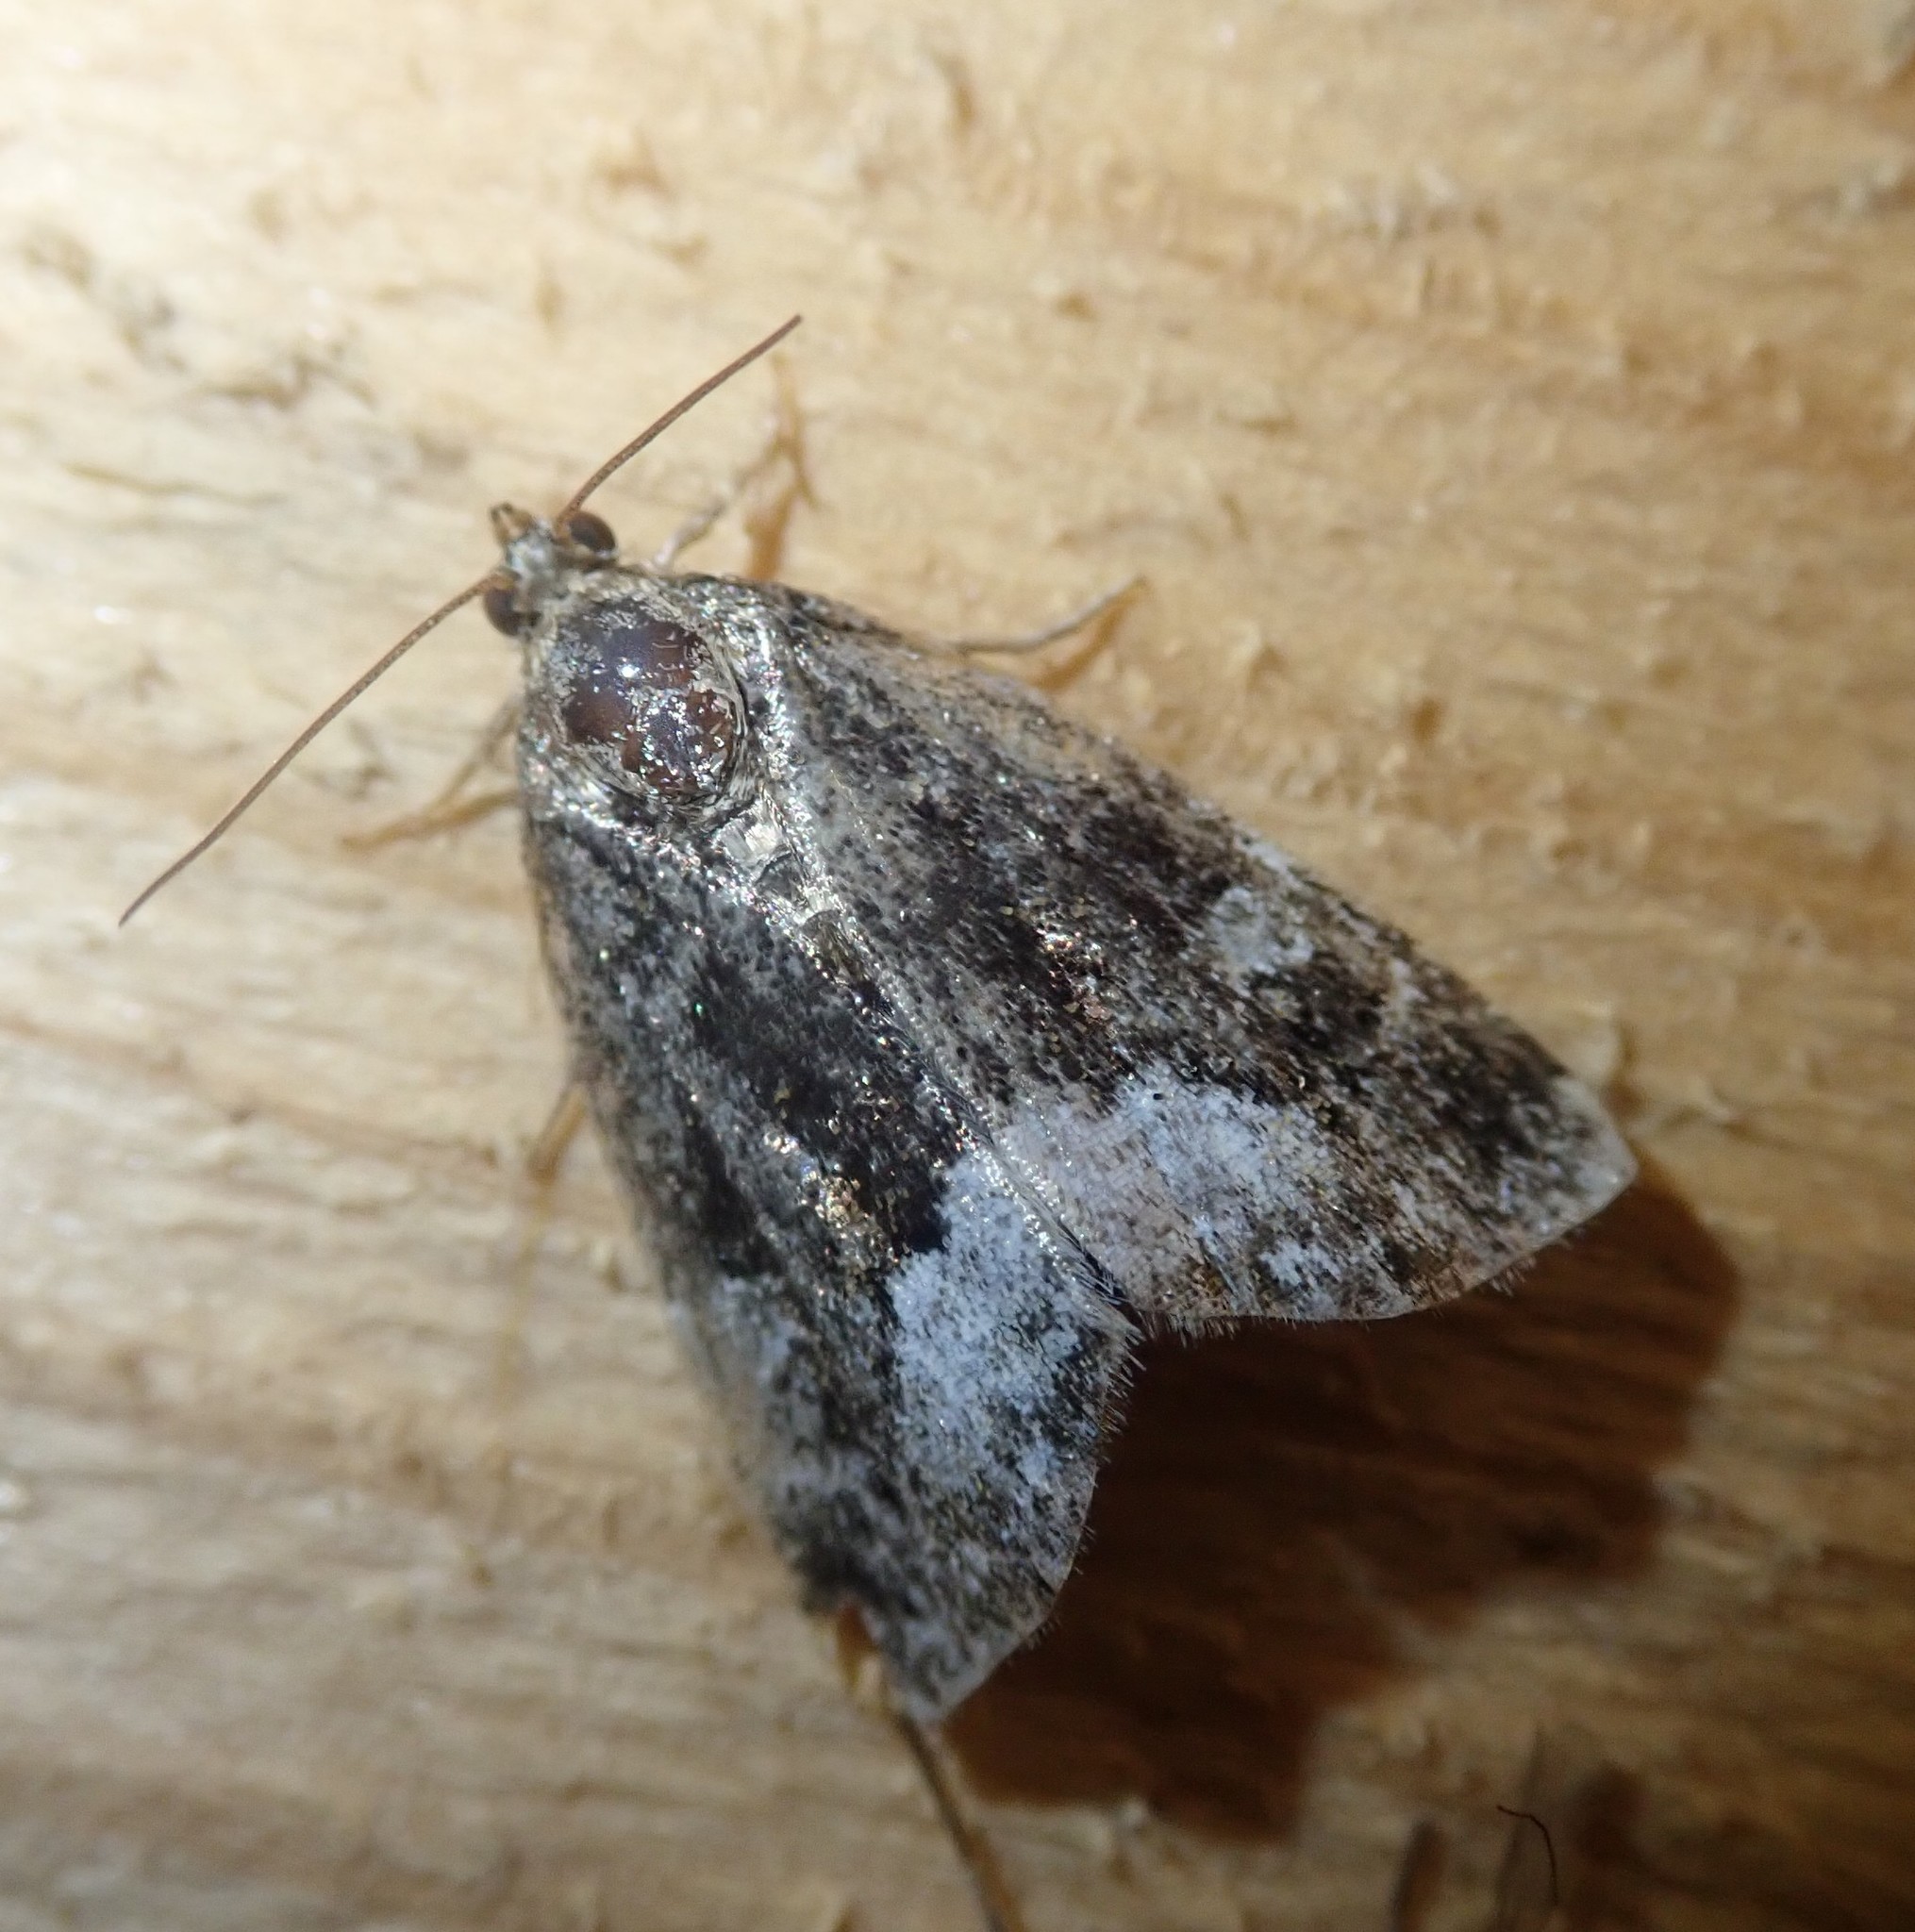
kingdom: Animalia
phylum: Arthropoda
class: Insecta
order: Lepidoptera
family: Noctuidae
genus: Deltote
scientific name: Deltote pygarga
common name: Marbled white spot
